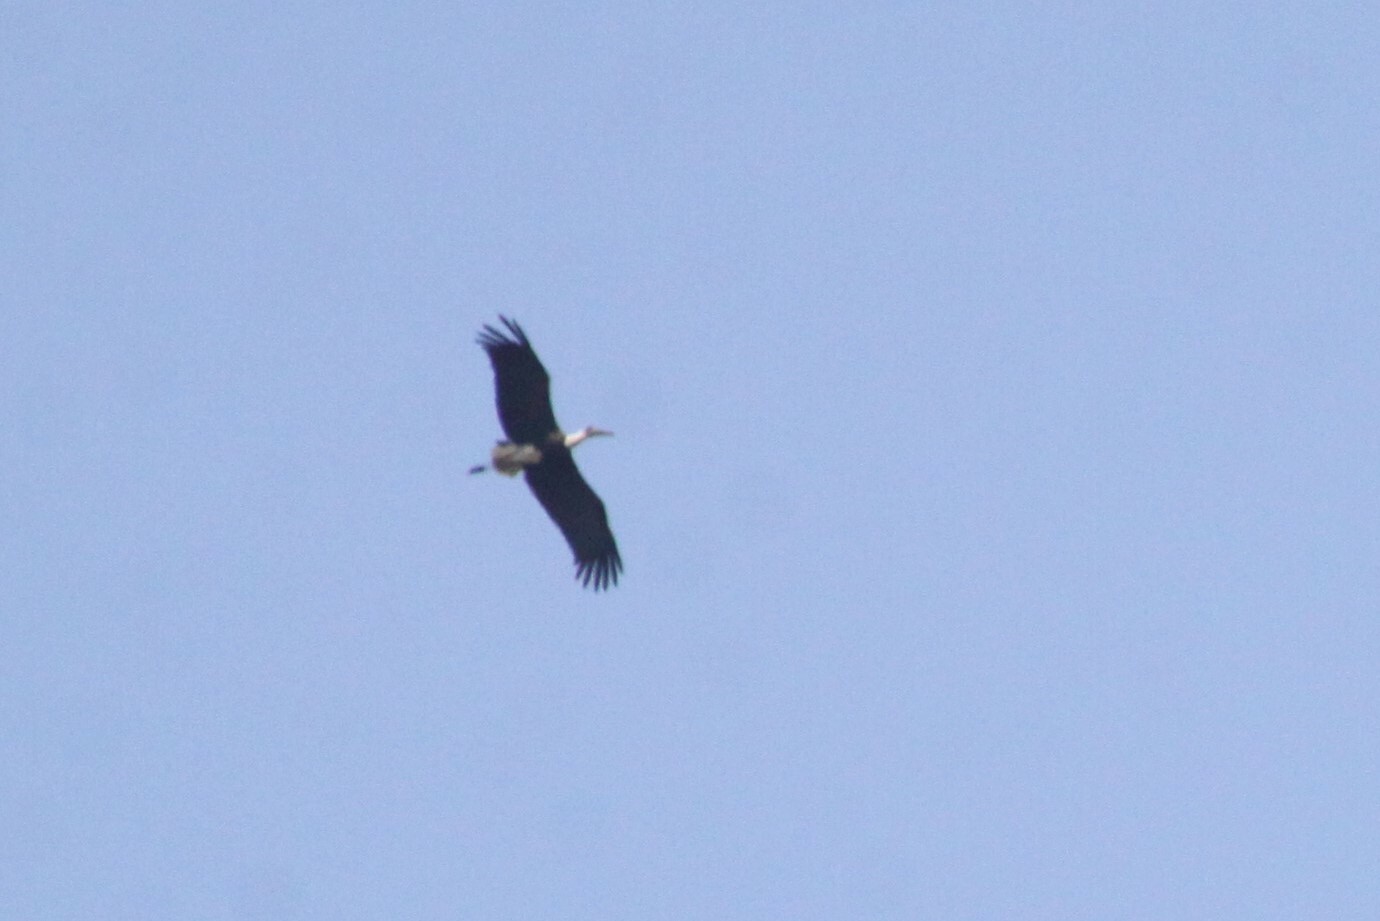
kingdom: Animalia
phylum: Chordata
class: Aves
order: Ciconiiformes
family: Ciconiidae
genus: Ciconia
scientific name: Ciconia microscelis
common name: African woollyneck
